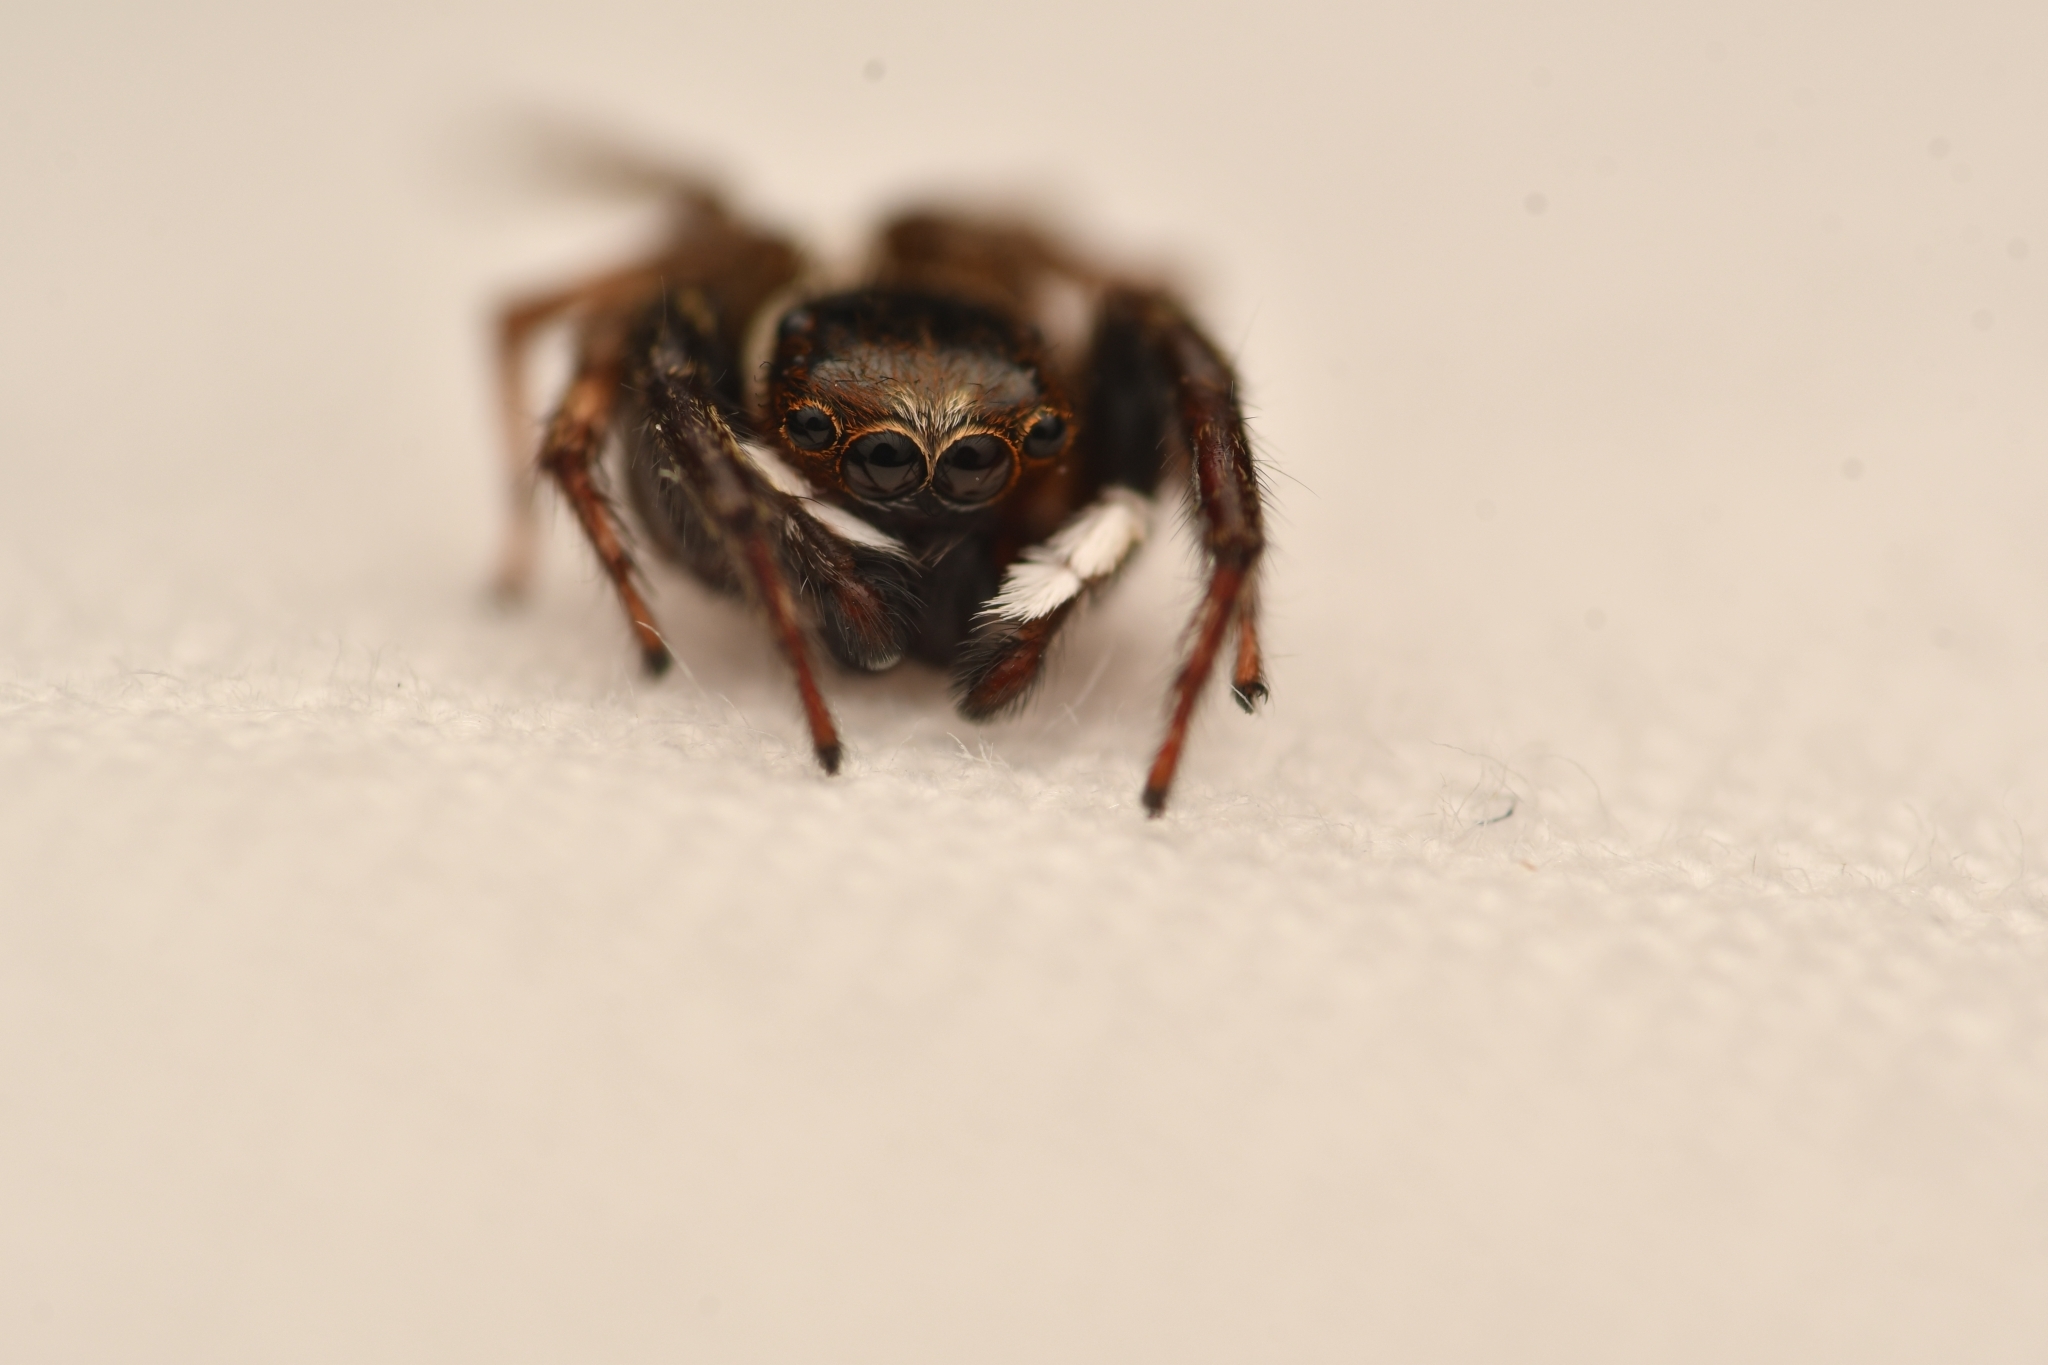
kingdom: Animalia
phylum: Arthropoda
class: Arachnida
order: Araneae
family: Salticidae
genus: Hasarius
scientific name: Hasarius adansoni
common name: Jumping spider
